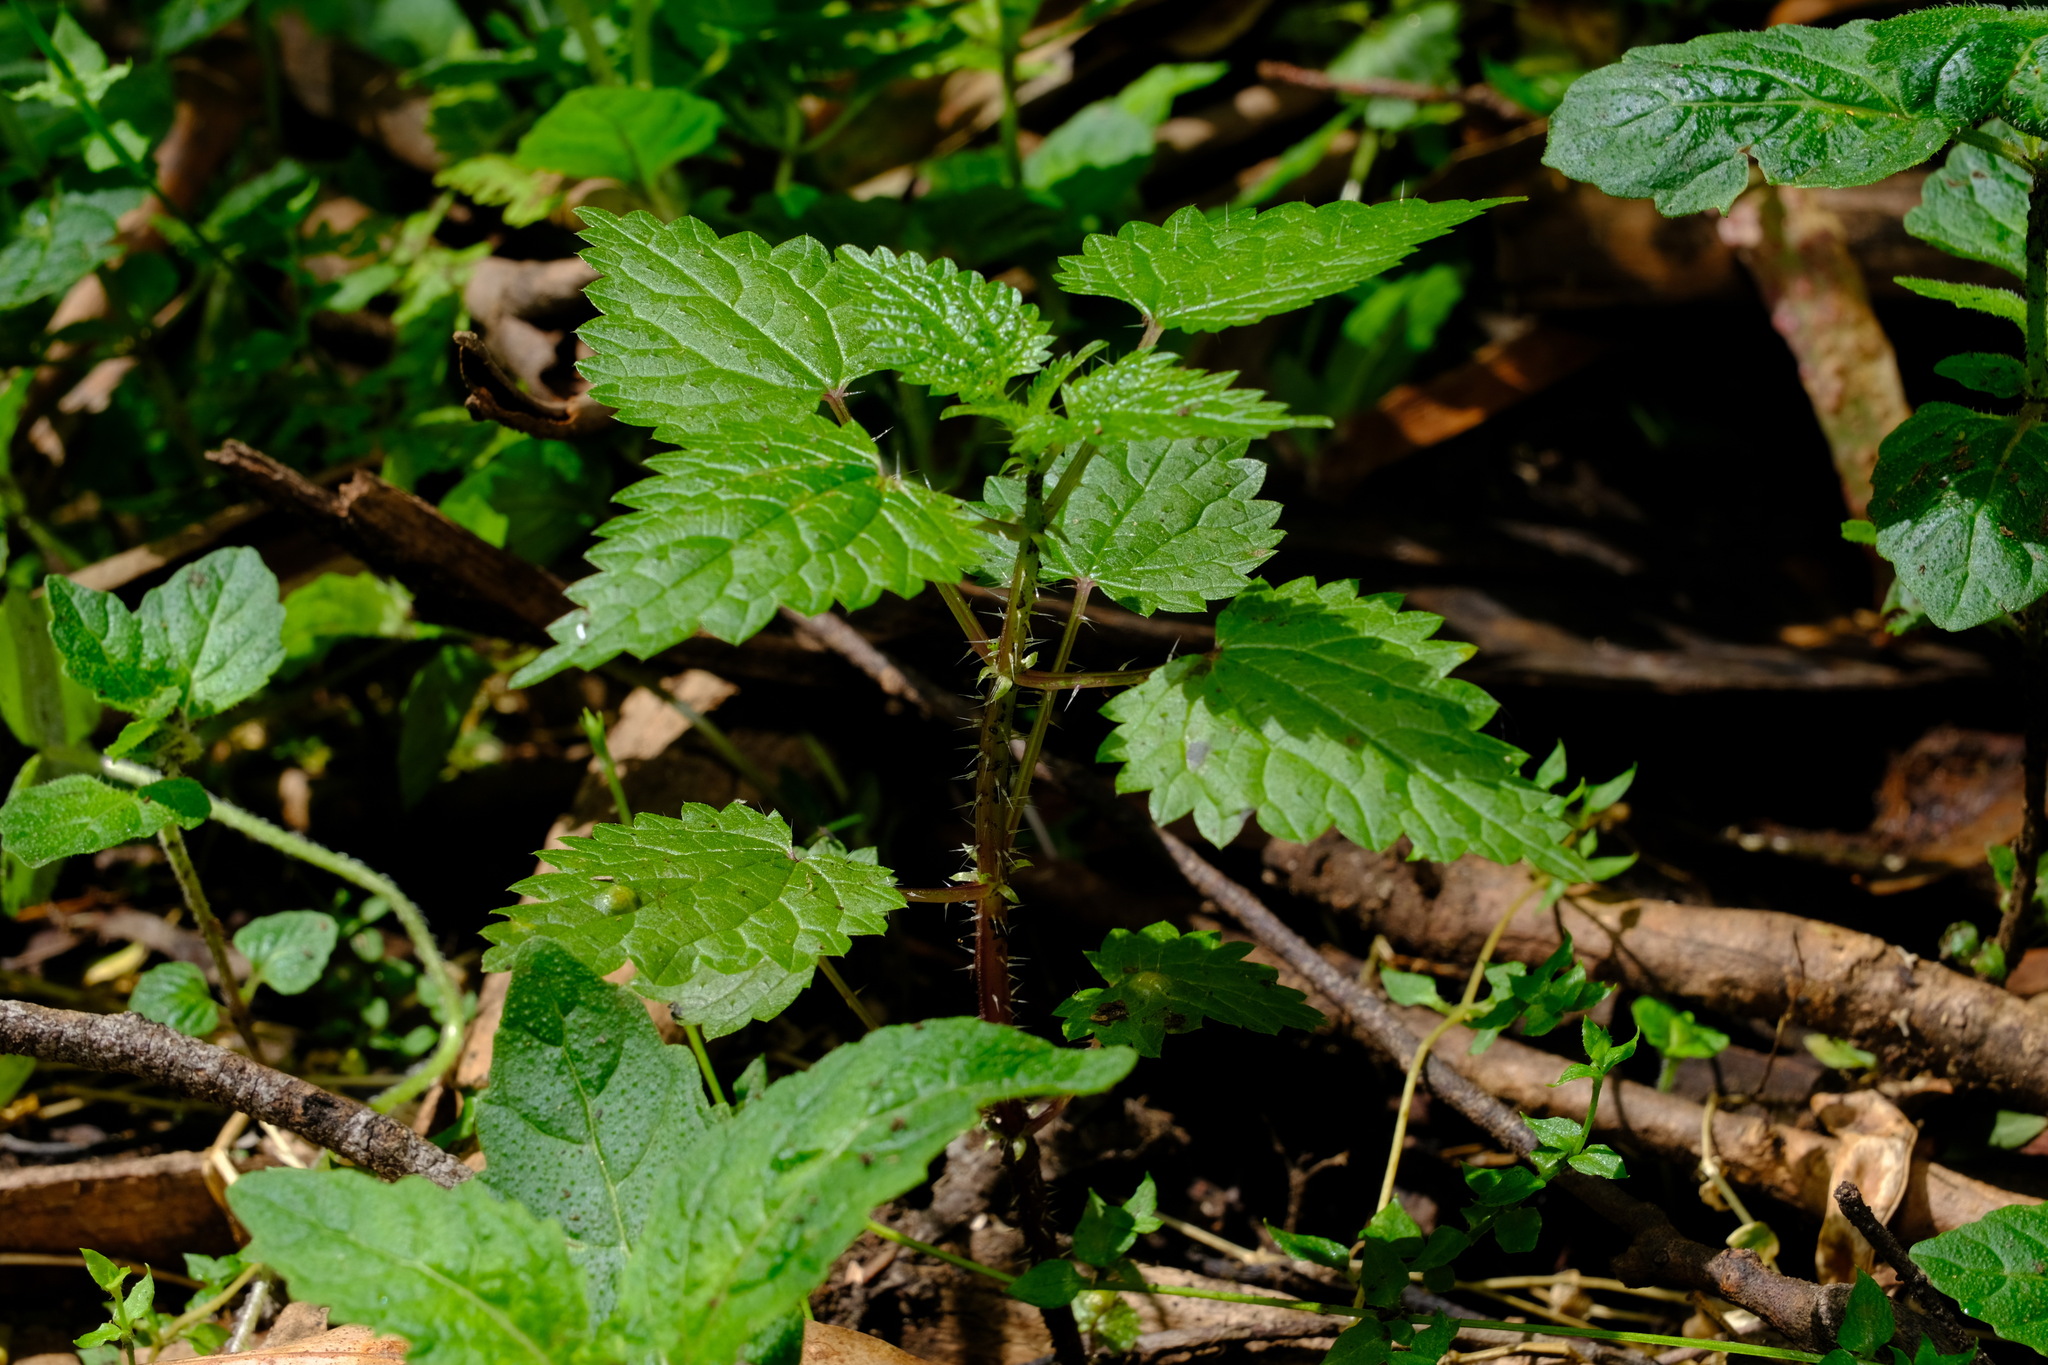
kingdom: Plantae
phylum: Tracheophyta
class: Magnoliopsida
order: Rosales
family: Urticaceae
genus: Urtica
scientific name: Urtica incisa
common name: Scrub nettle
